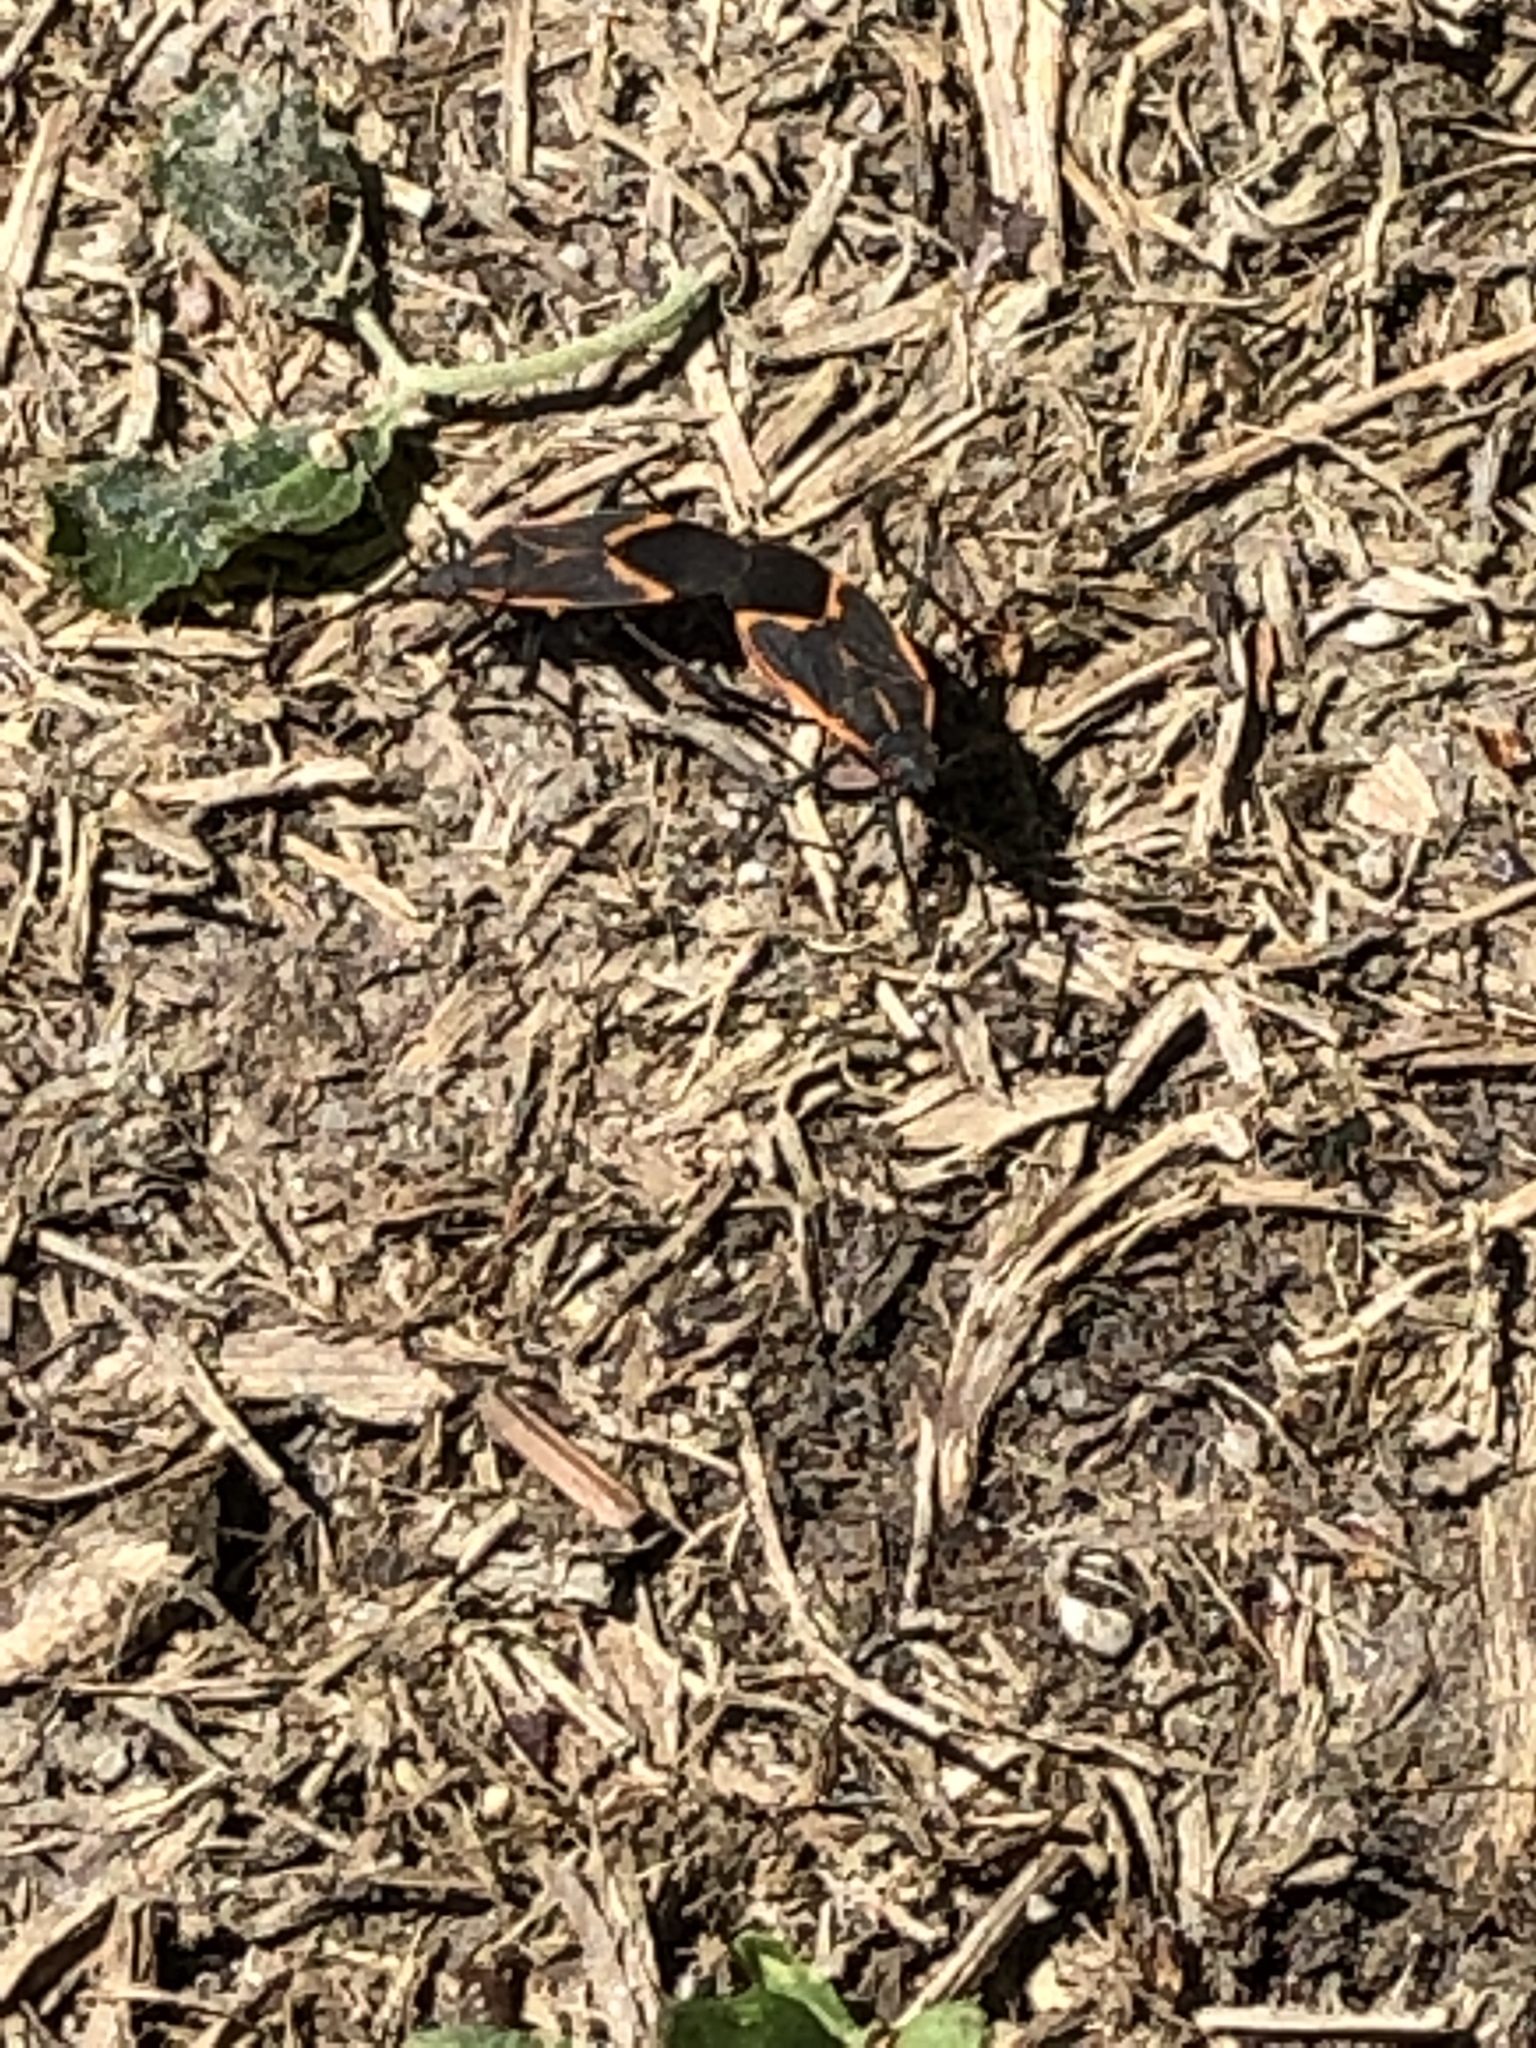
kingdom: Animalia
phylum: Arthropoda
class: Insecta
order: Hemiptera
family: Rhopalidae
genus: Boisea
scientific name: Boisea trivittata
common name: Boxelder bug
